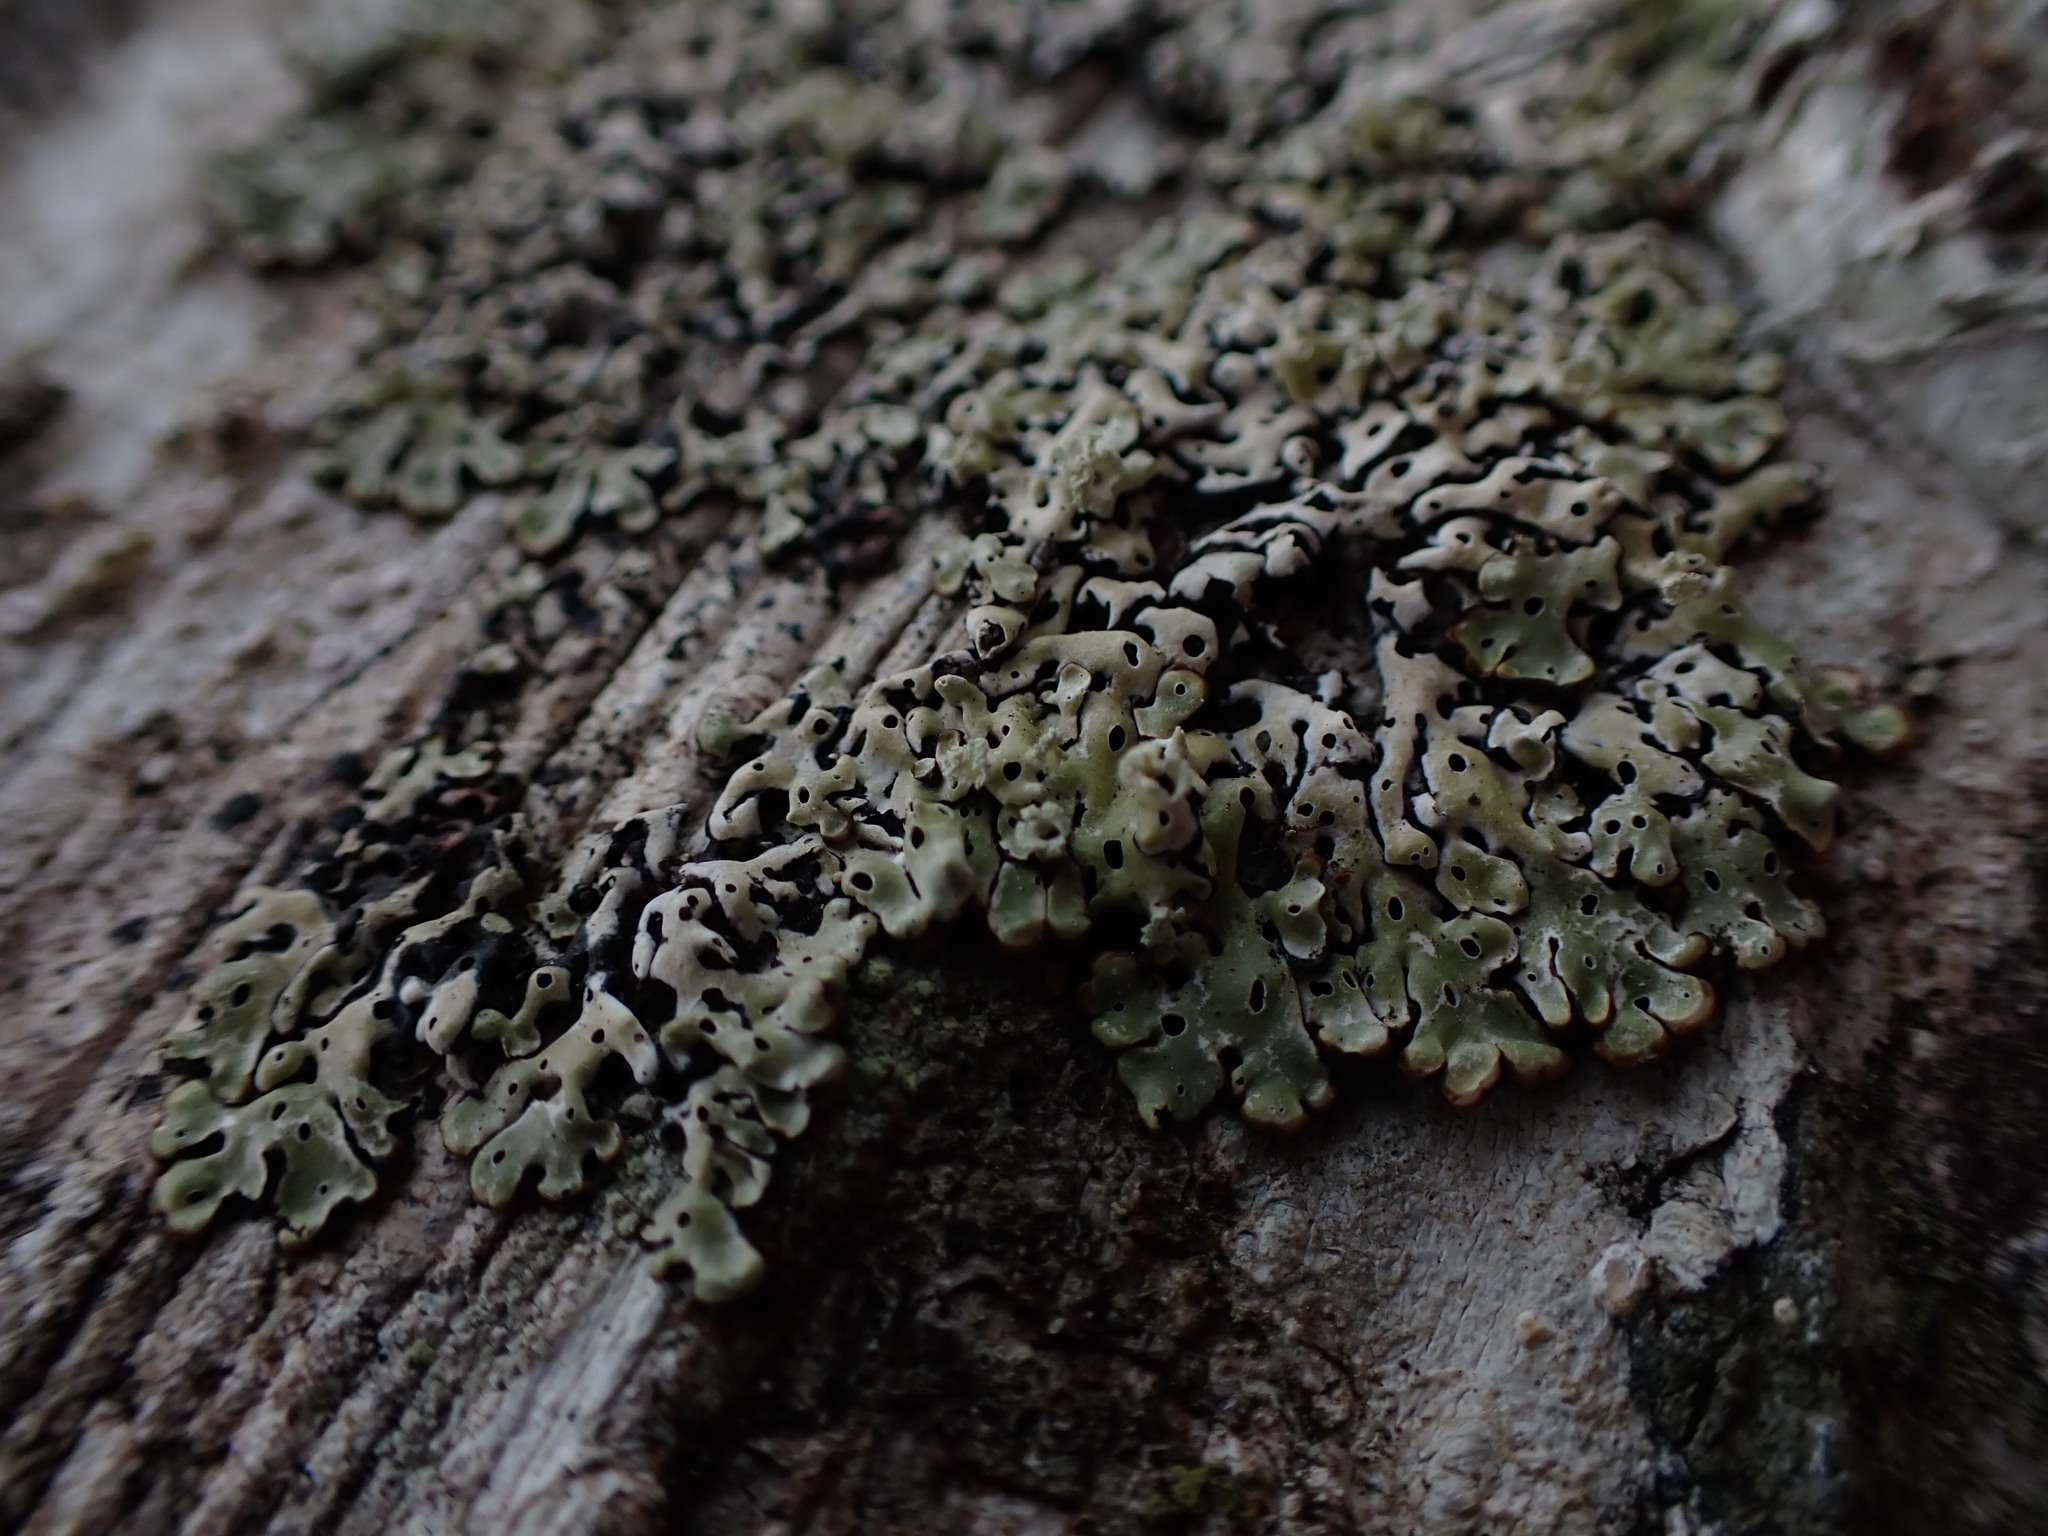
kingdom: Fungi
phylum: Ascomycota
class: Lecanoromycetes
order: Lecanorales
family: Parmeliaceae
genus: Menegazzia
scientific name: Menegazzia subsimilis
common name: Tree flute lichen
